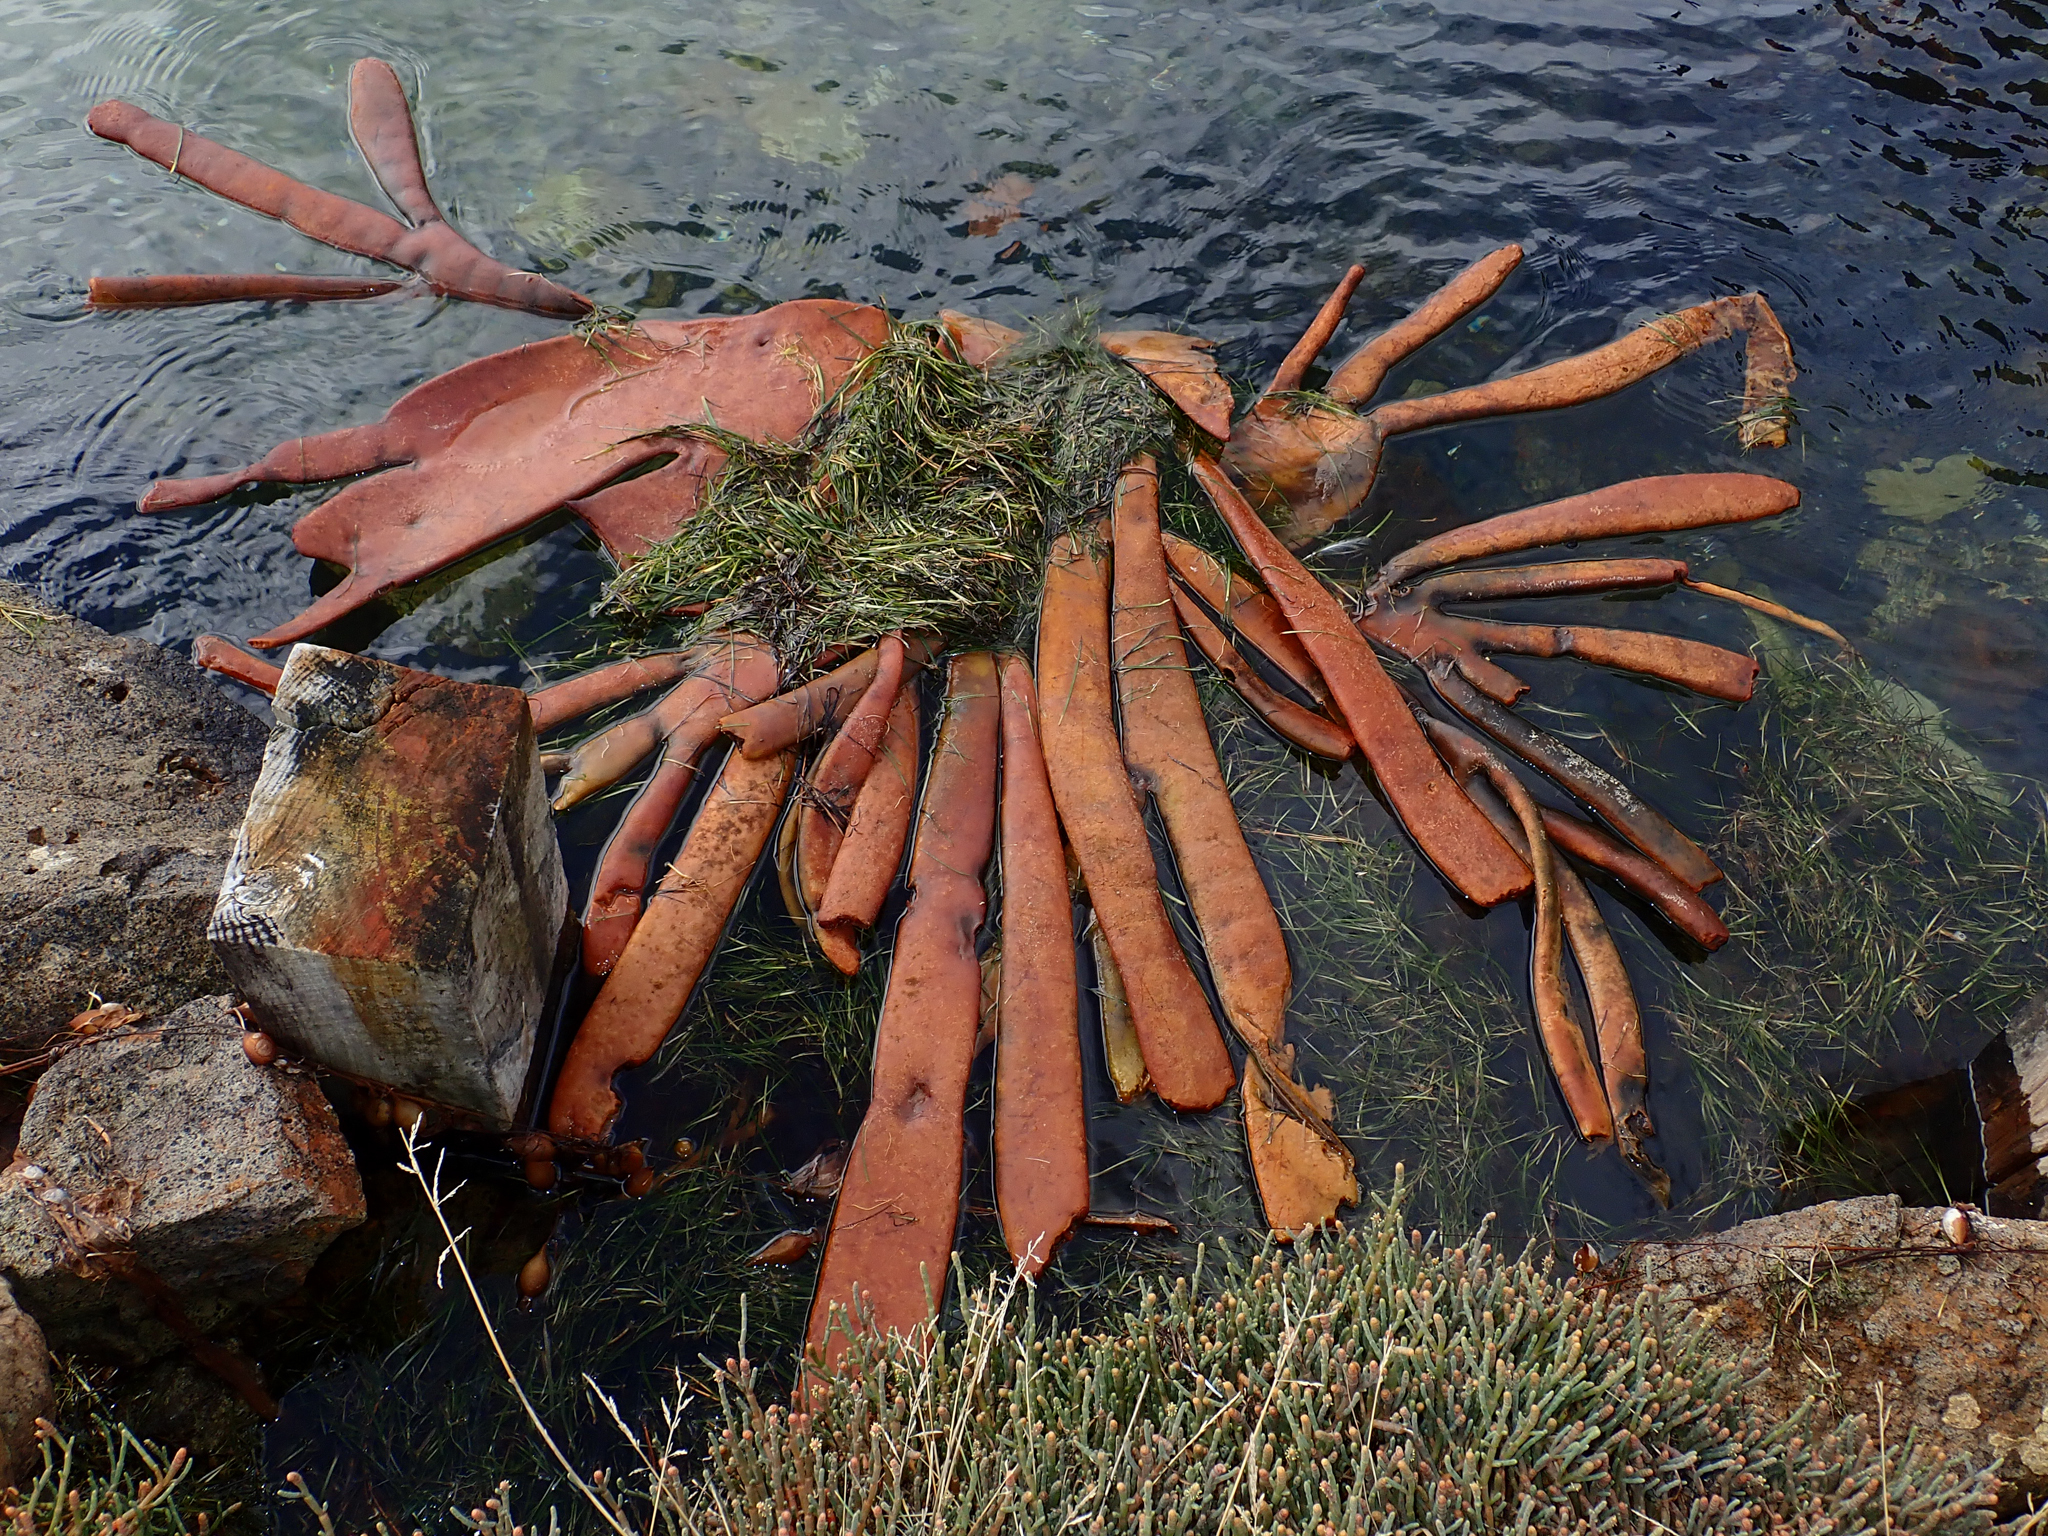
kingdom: Chromista
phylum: Ochrophyta
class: Phaeophyceae
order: Fucales
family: Durvillaeaceae
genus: Durvillaea
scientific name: Durvillaea antarctica
